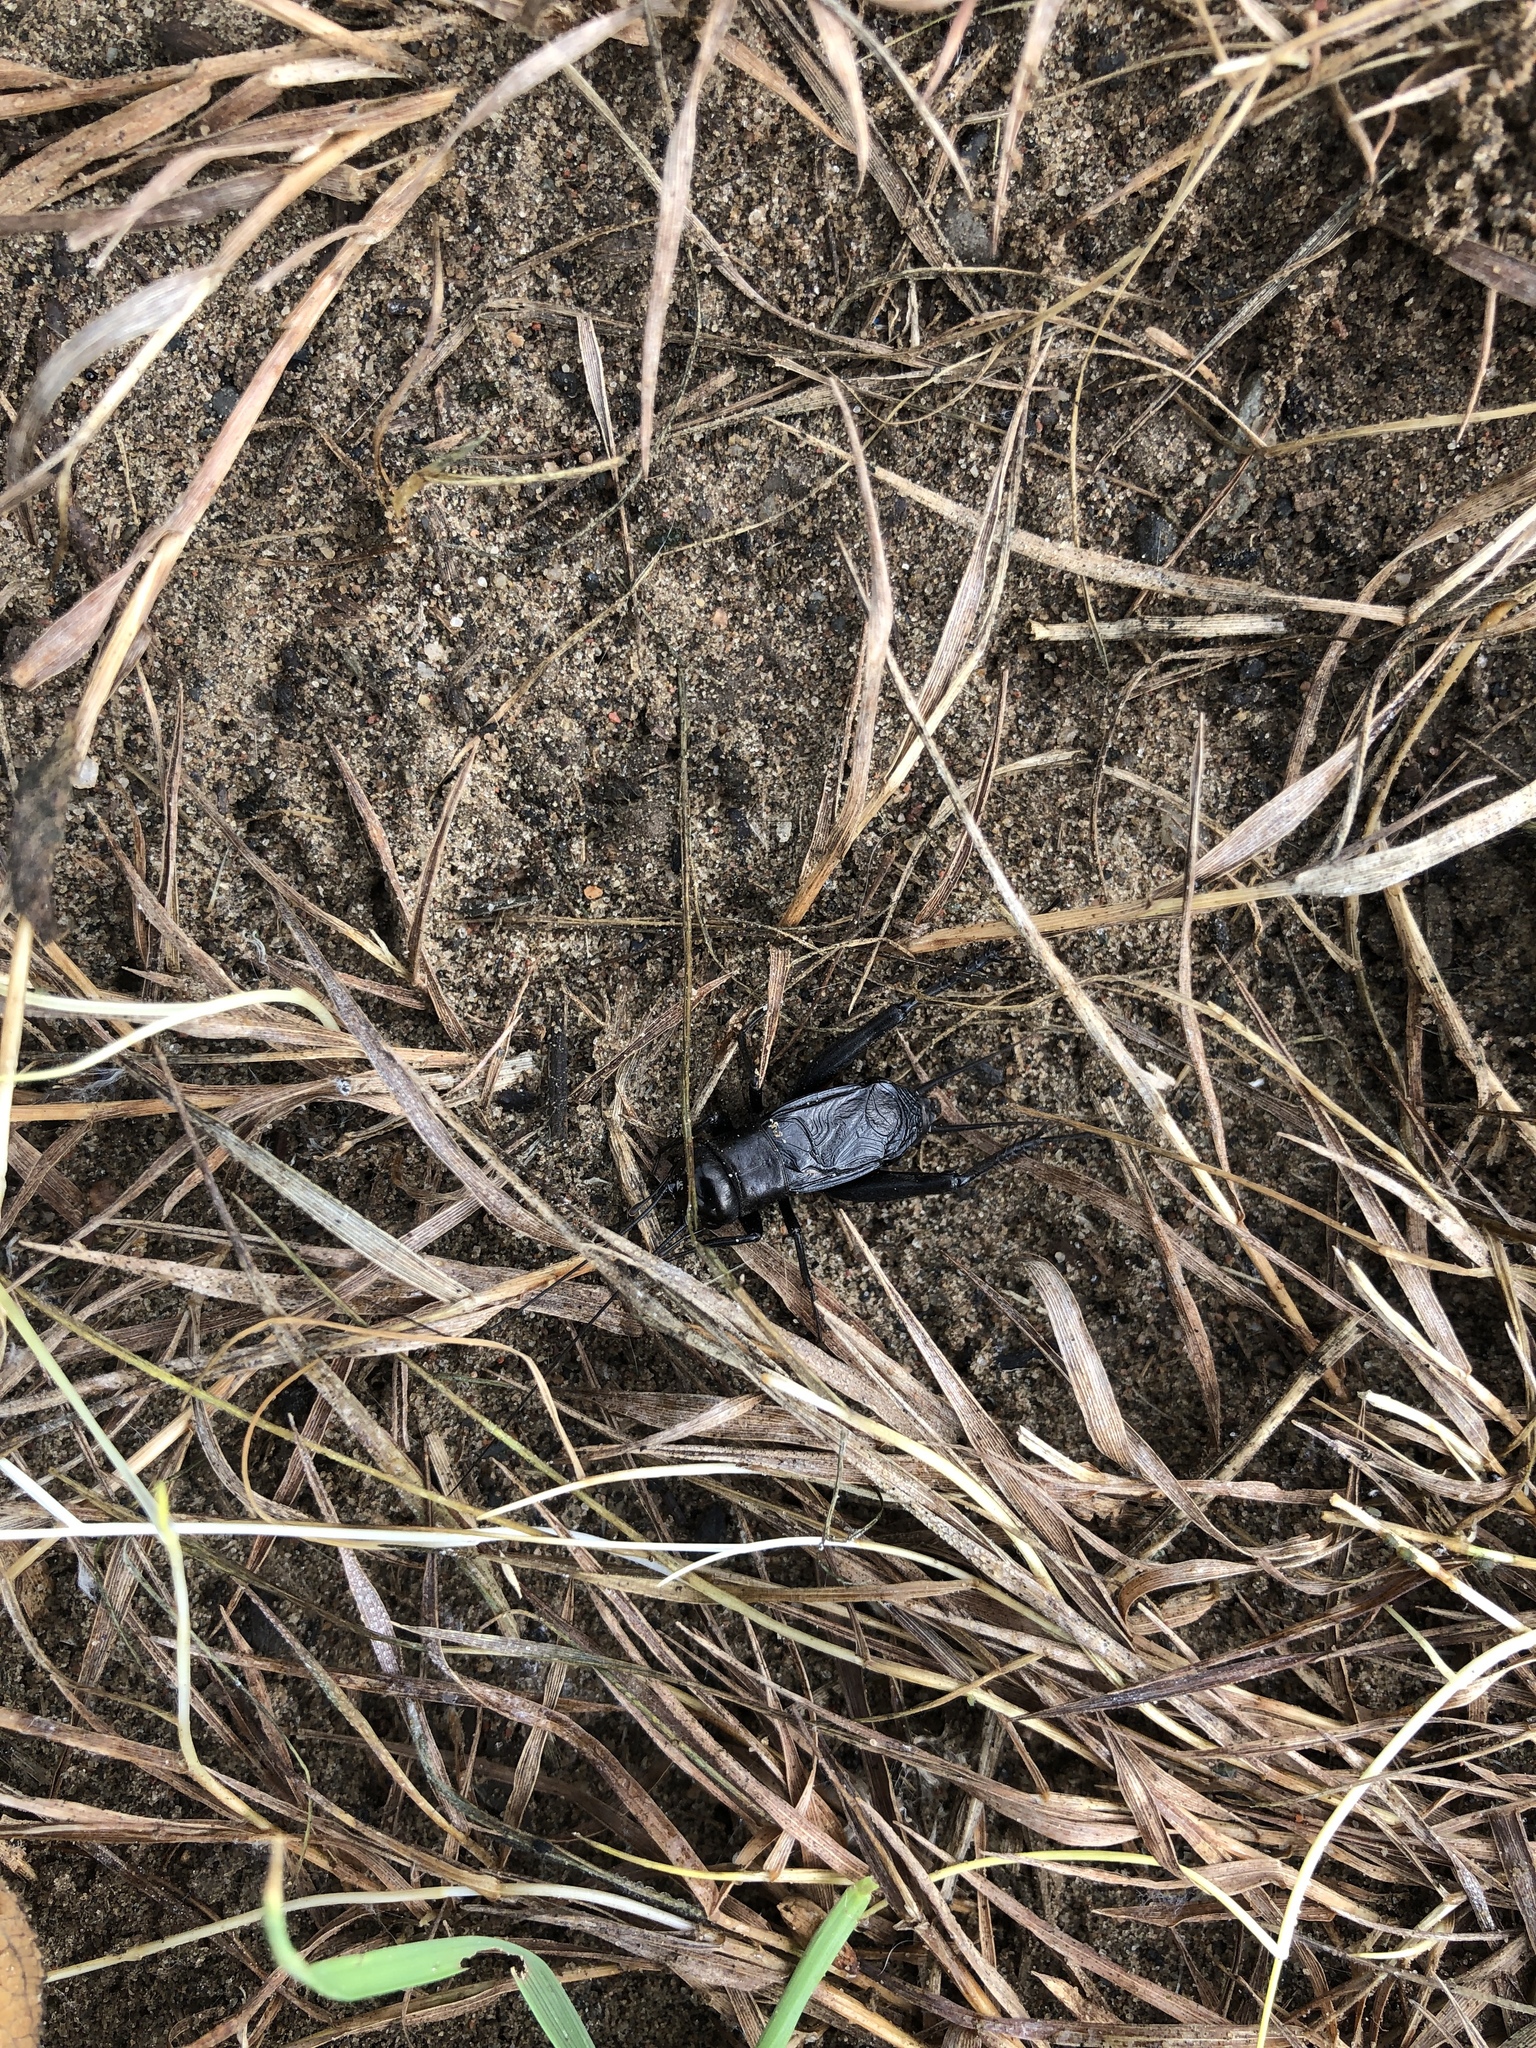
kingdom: Animalia
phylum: Arthropoda
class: Insecta
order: Orthoptera
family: Gryllidae
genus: Gryllus
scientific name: Gryllus pennsylvanicus
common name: Fall field cricket
